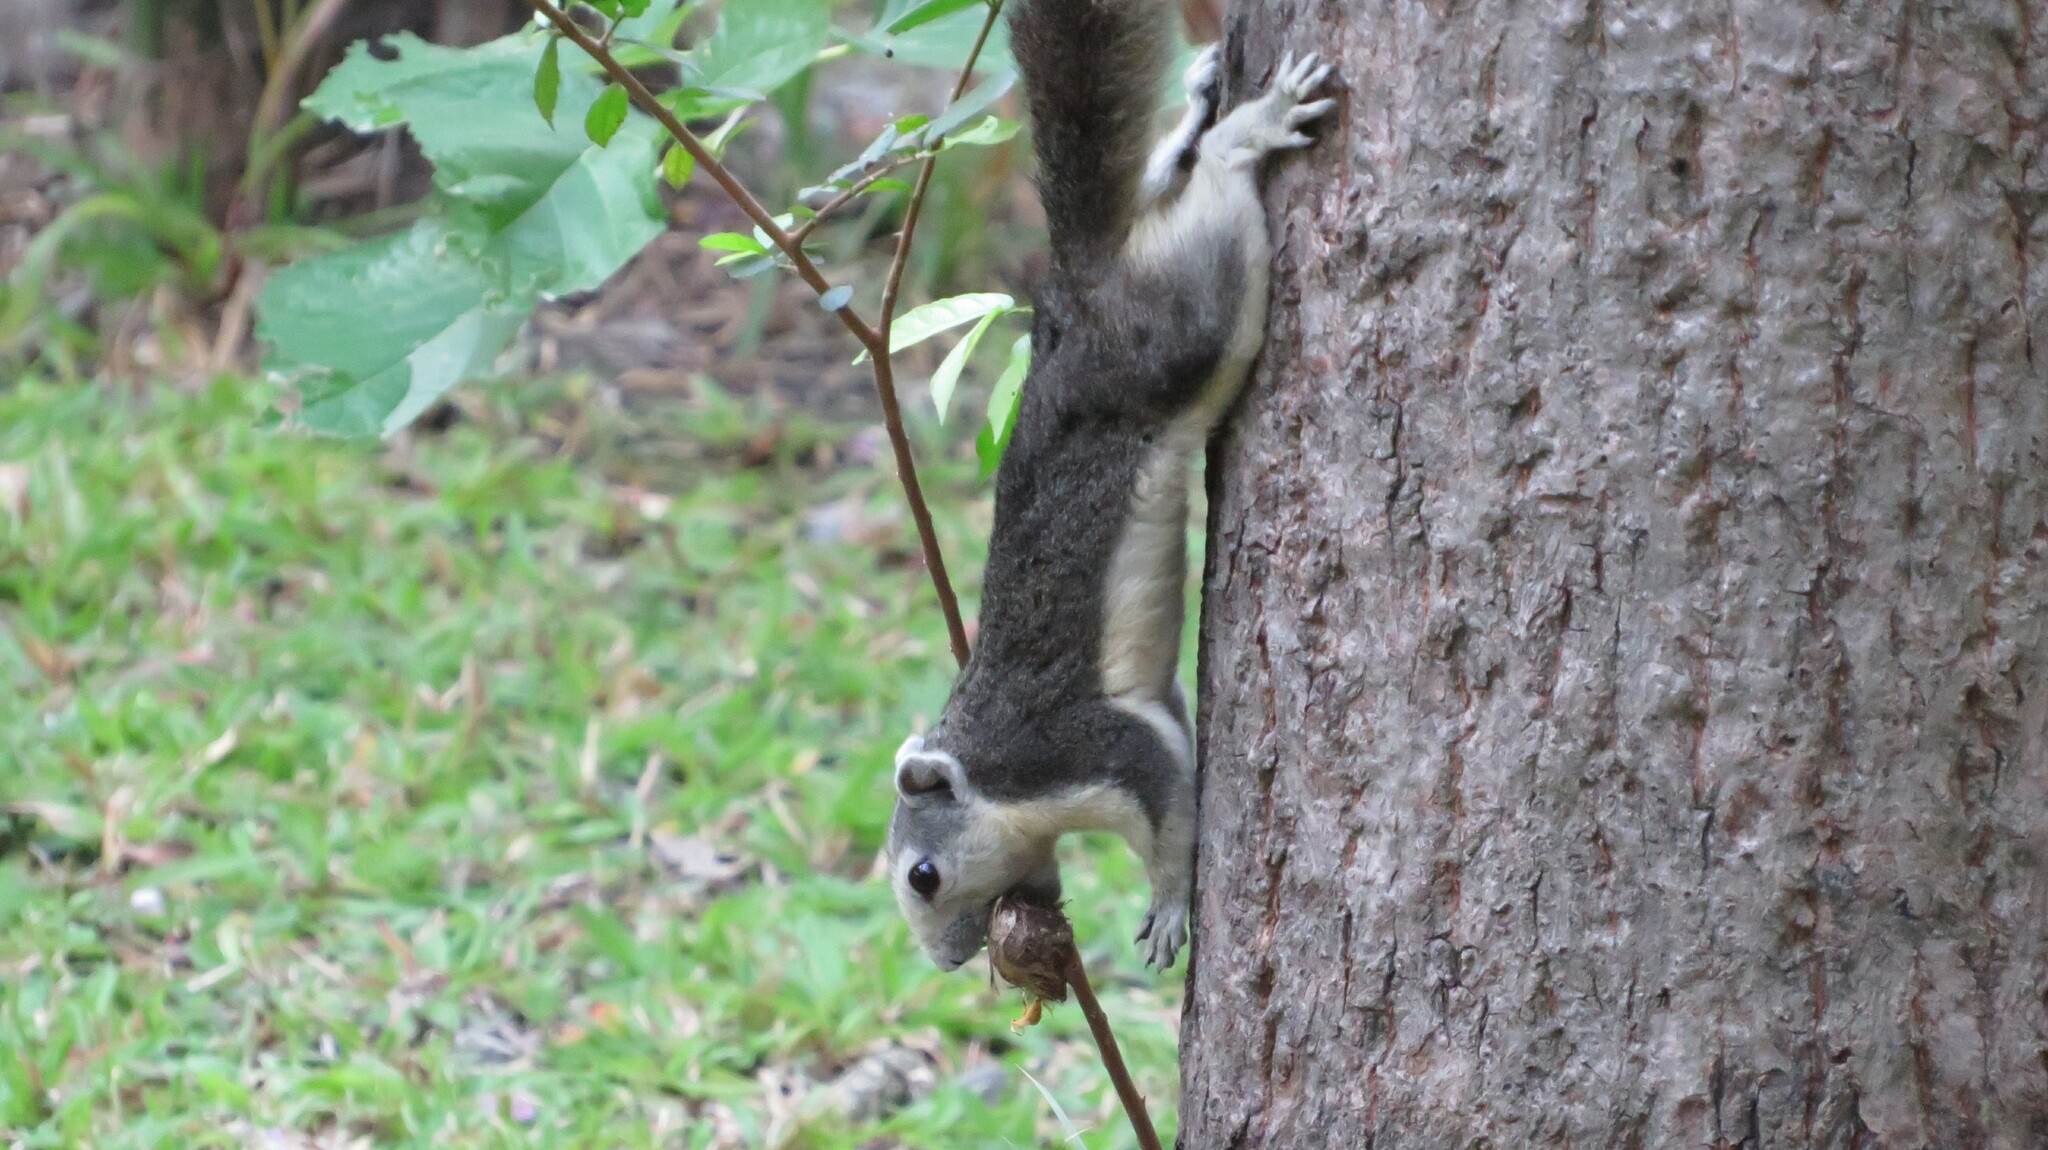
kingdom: Animalia
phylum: Chordata
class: Mammalia
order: Rodentia
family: Sciuridae
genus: Callosciurus
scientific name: Callosciurus finlaysonii
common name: Finlayson's squirrel
